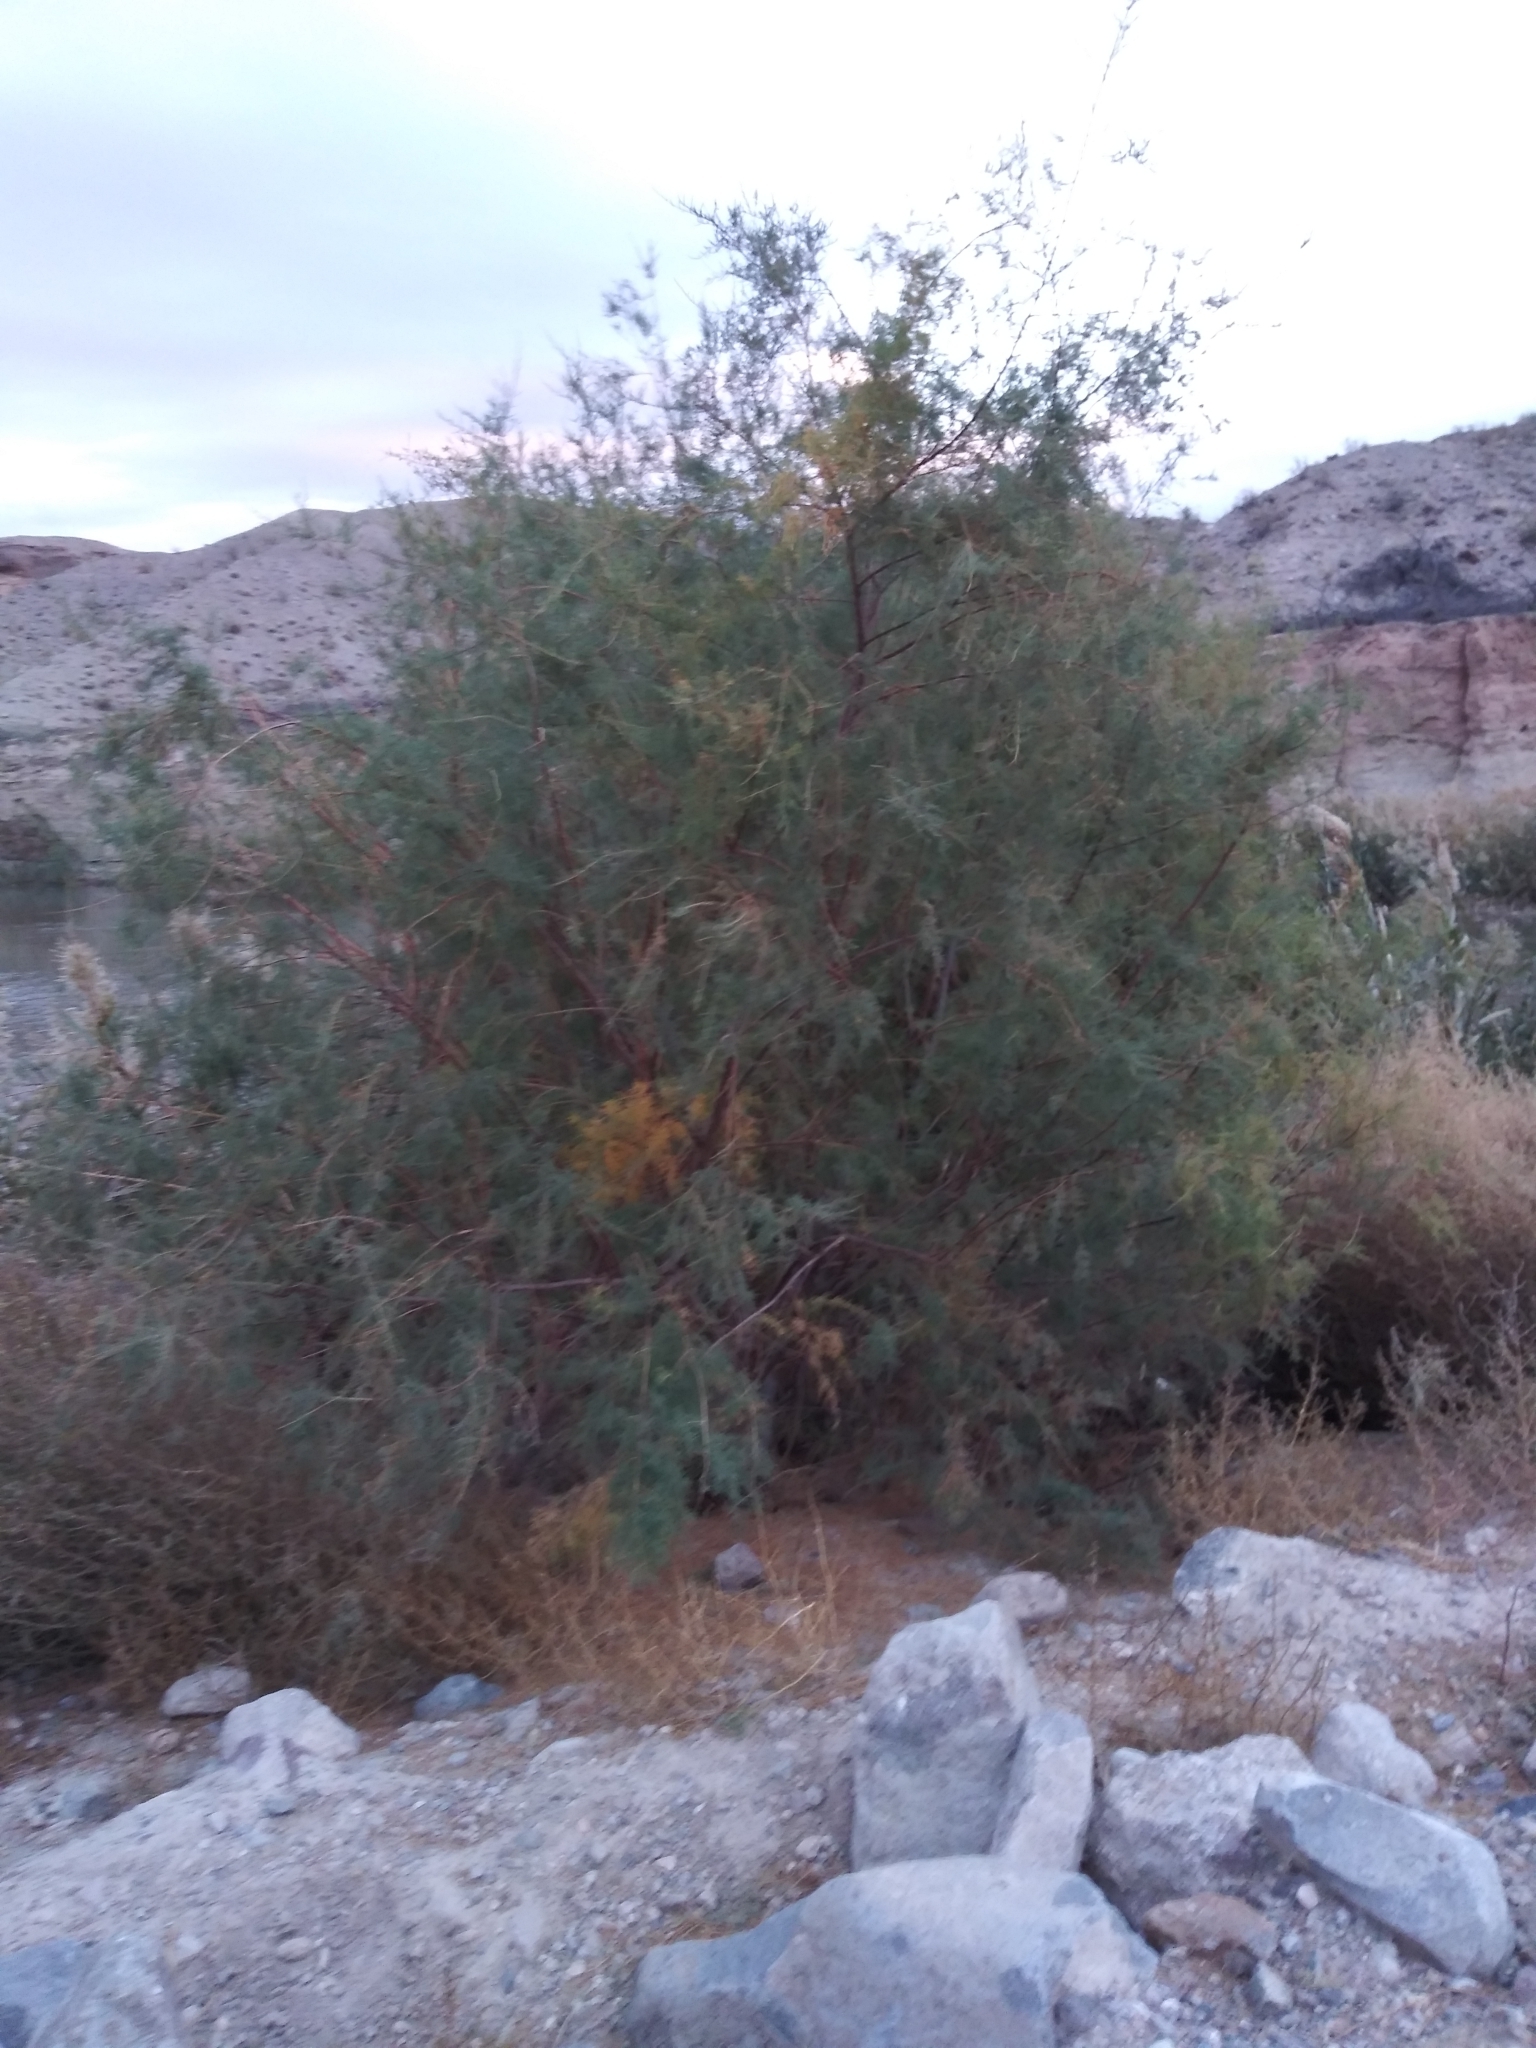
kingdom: Plantae
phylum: Tracheophyta
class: Magnoliopsida
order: Caryophyllales
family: Tamaricaceae
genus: Tamarix
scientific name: Tamarix ramosissima
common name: Pink tamarisk
